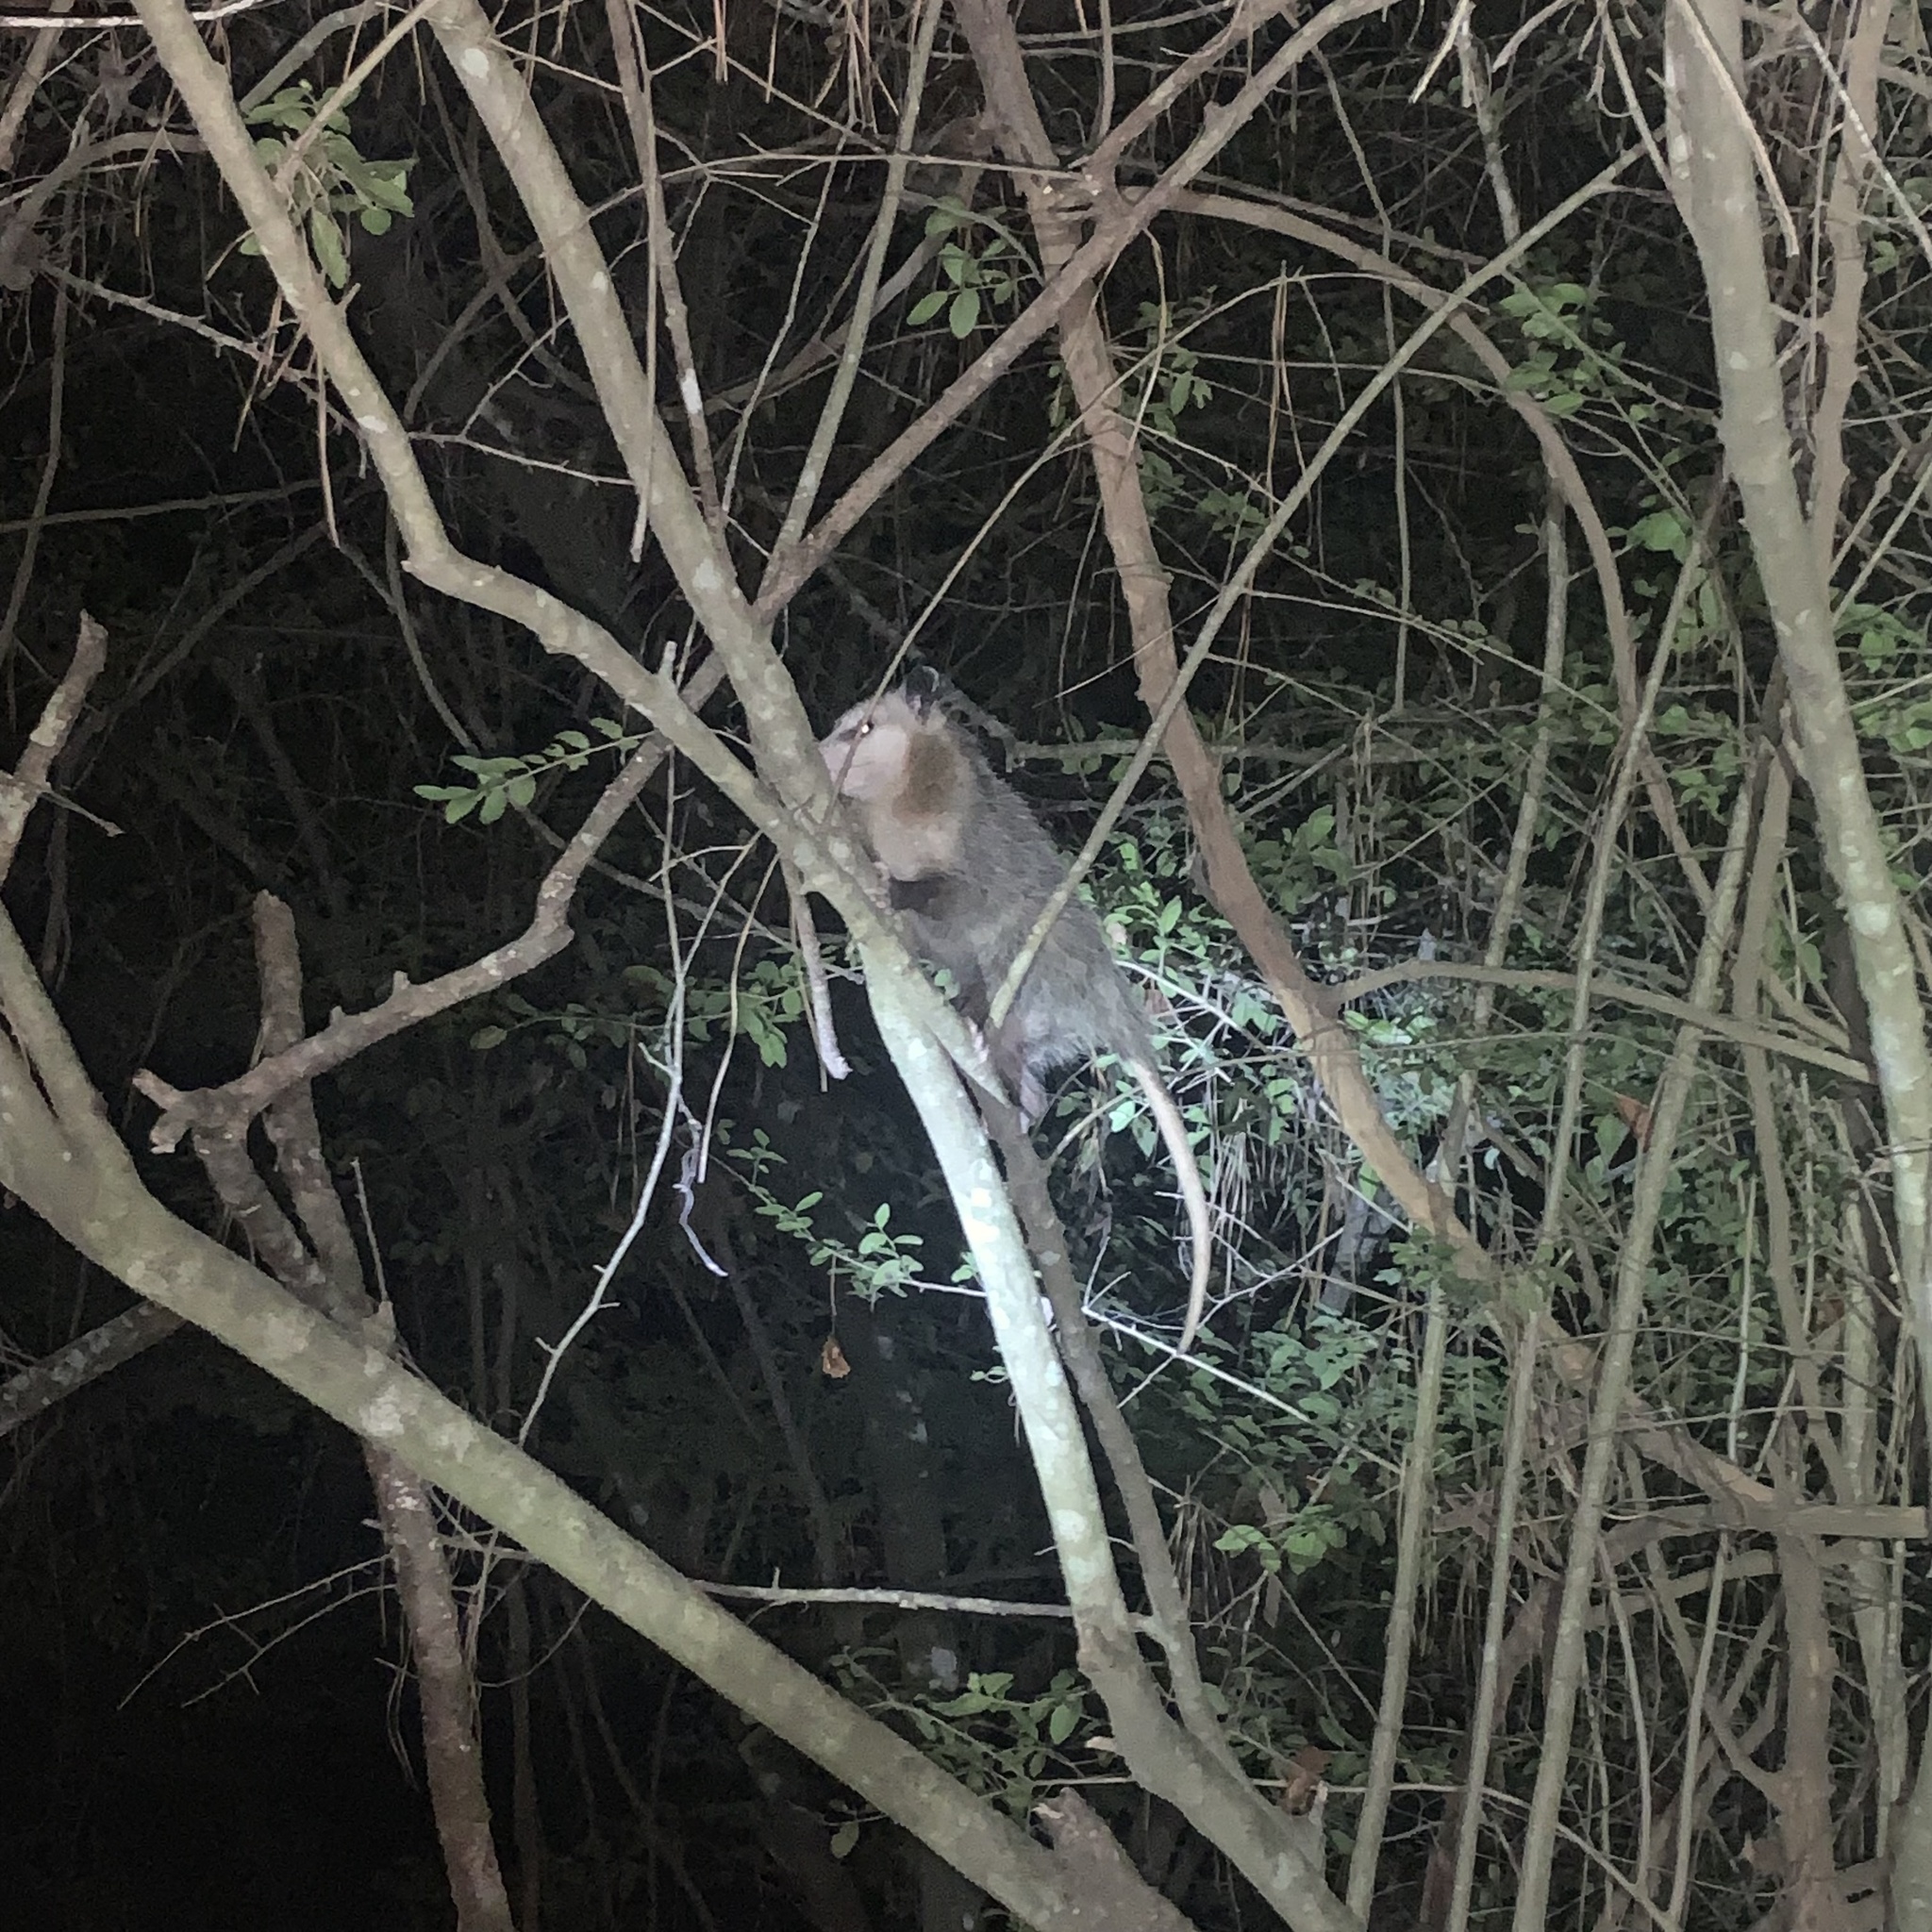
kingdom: Animalia
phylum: Chordata
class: Mammalia
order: Didelphimorphia
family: Didelphidae
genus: Didelphis
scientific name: Didelphis virginiana
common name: Virginia opossum
